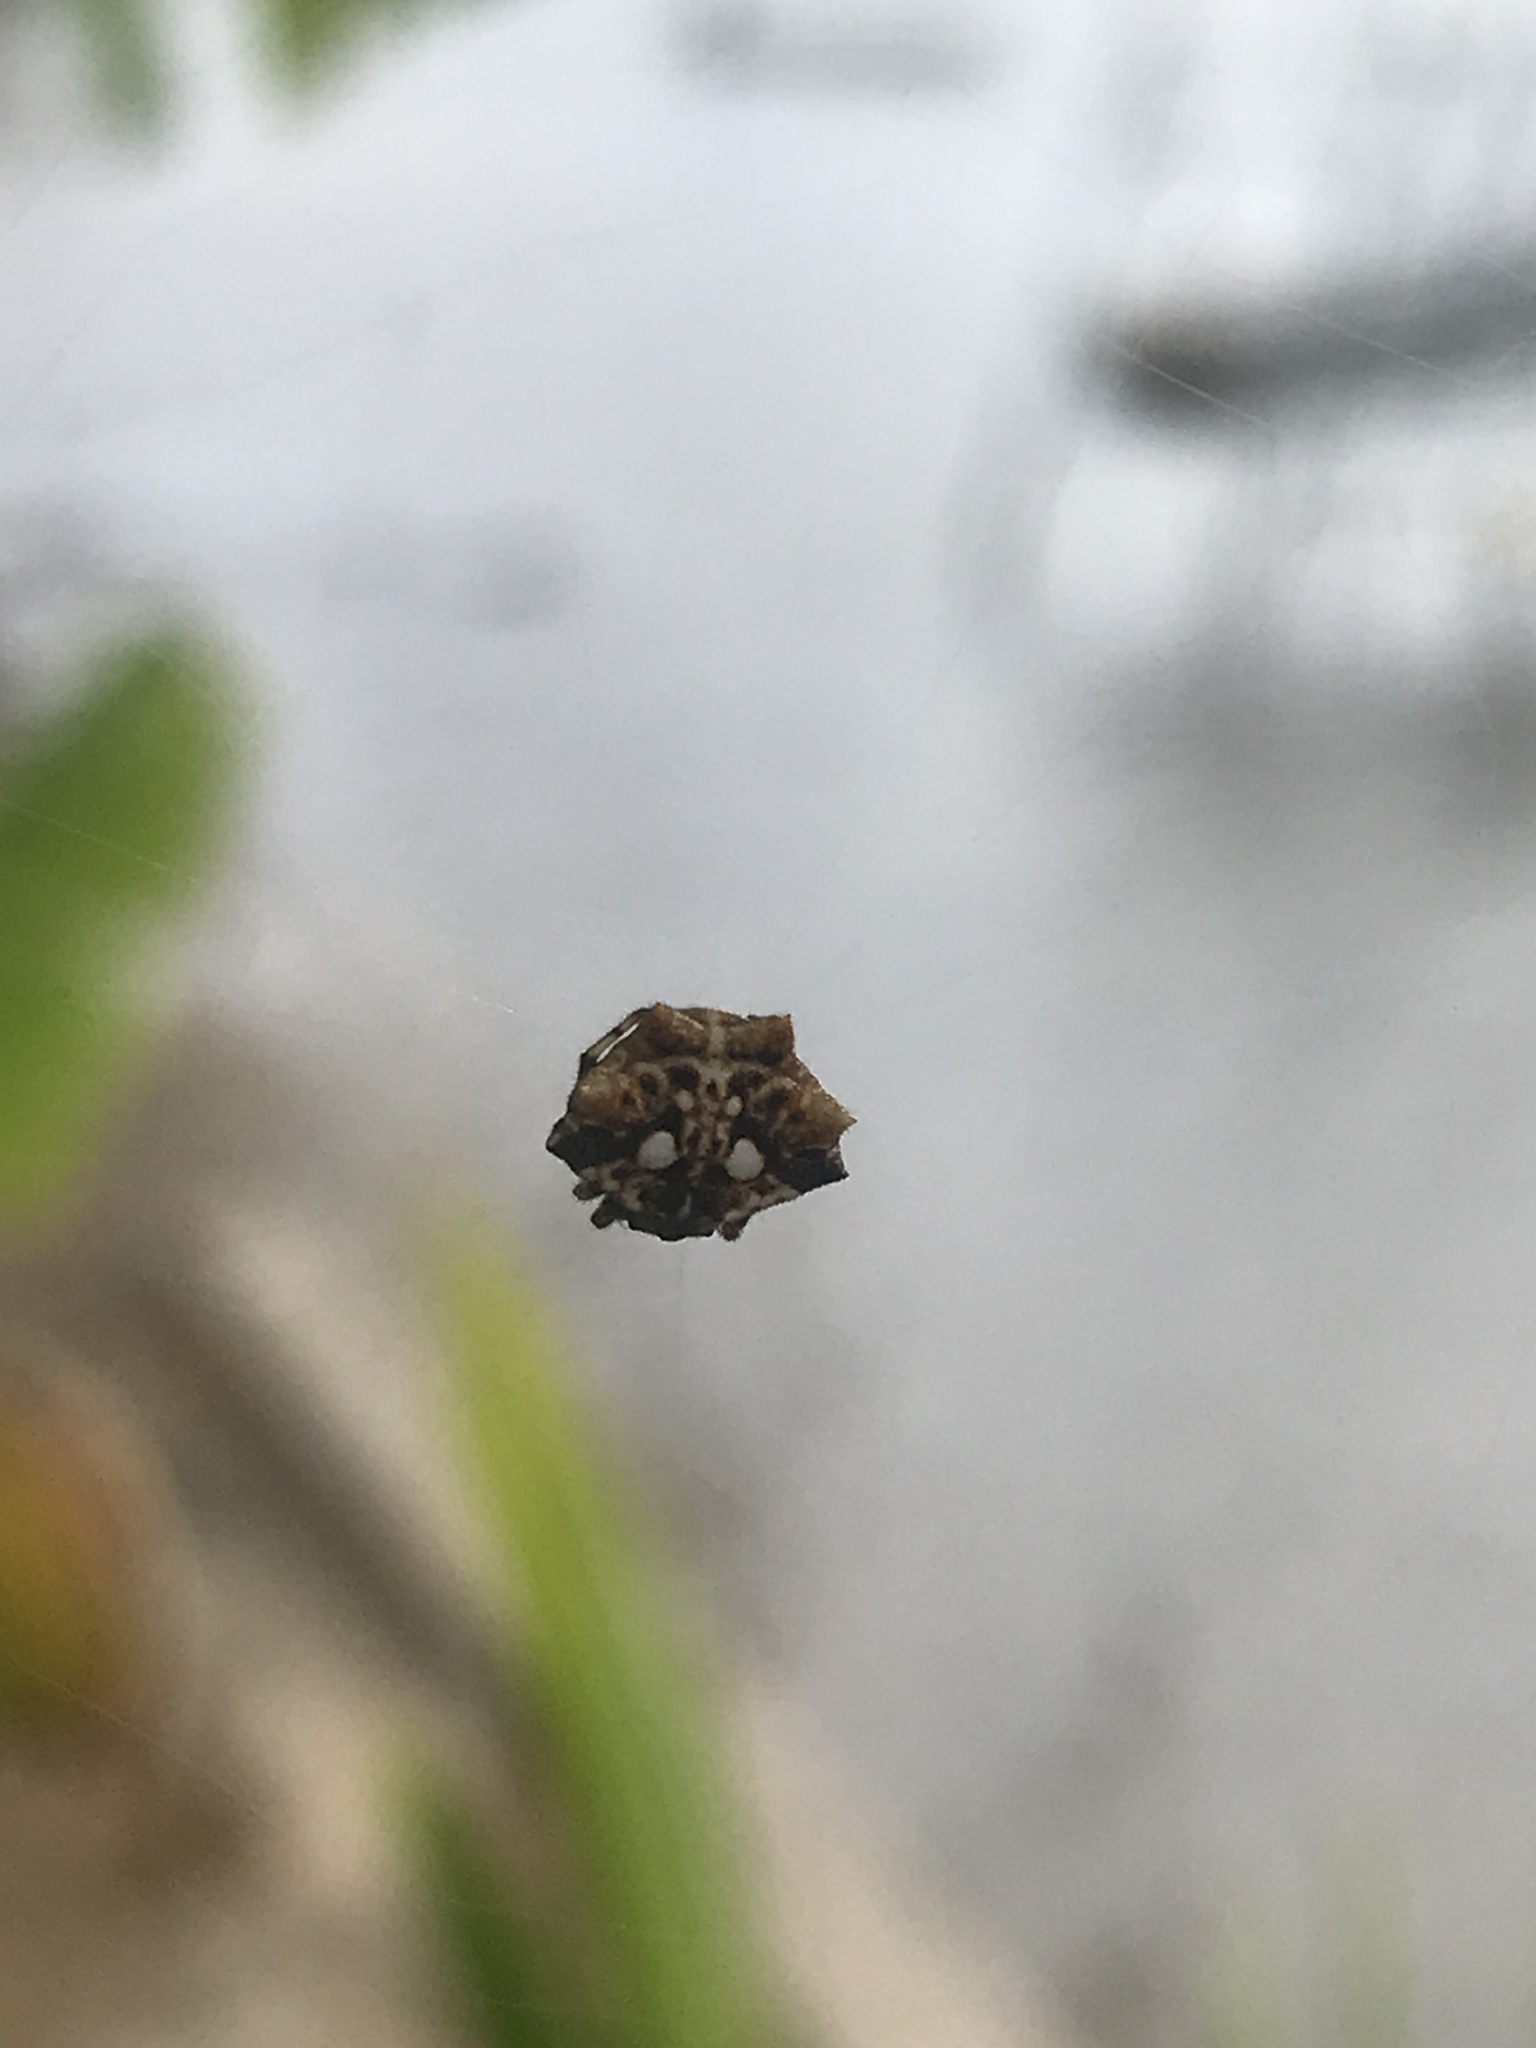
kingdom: Animalia
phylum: Arthropoda
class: Arachnida
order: Araneae
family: Araneidae
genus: Thelacantha
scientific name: Thelacantha brevispina
